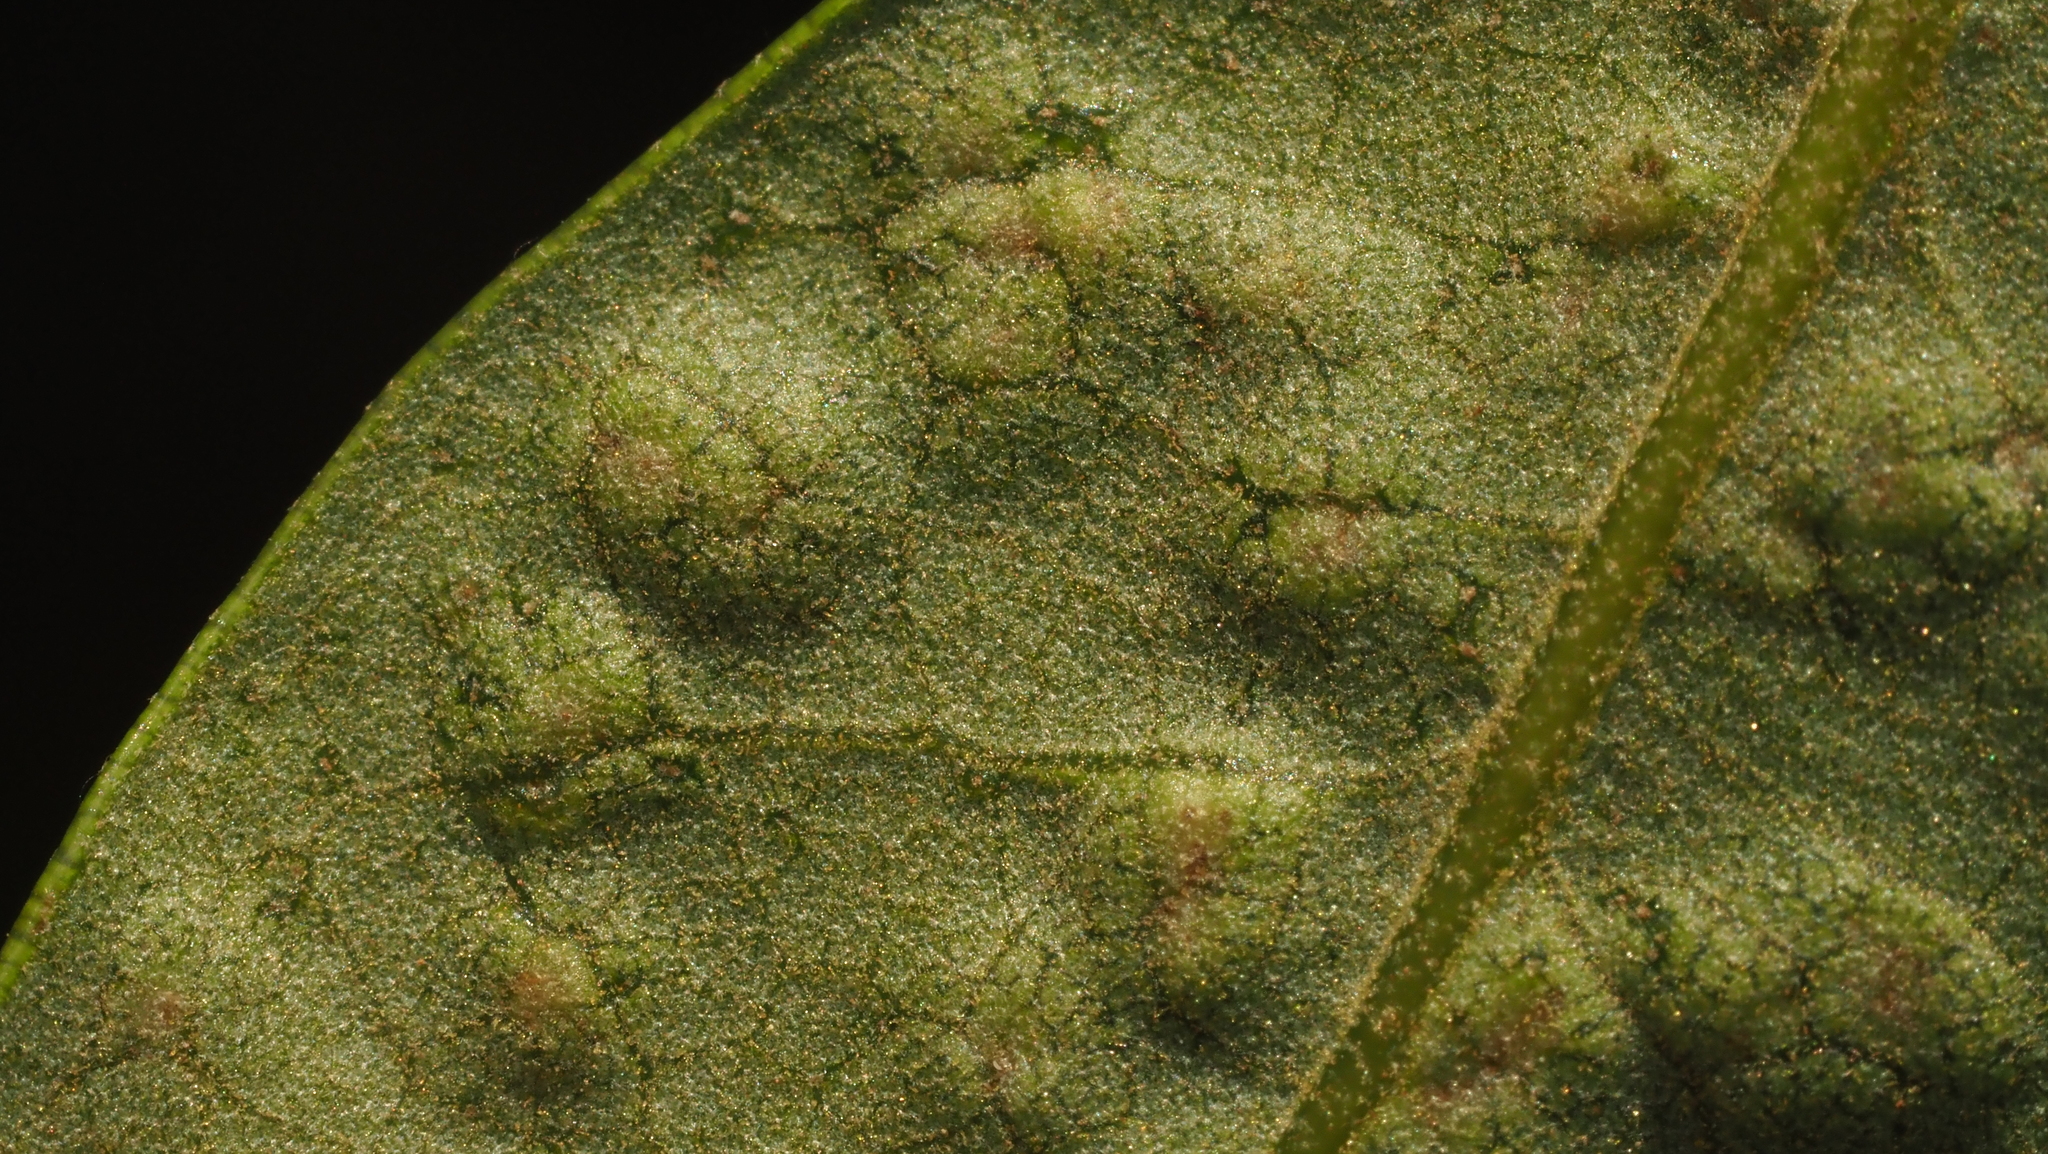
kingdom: Animalia
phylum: Arthropoda
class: Insecta
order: Hymenoptera
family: Cynipidae
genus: Neuroterus
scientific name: Neuroterus bussae
